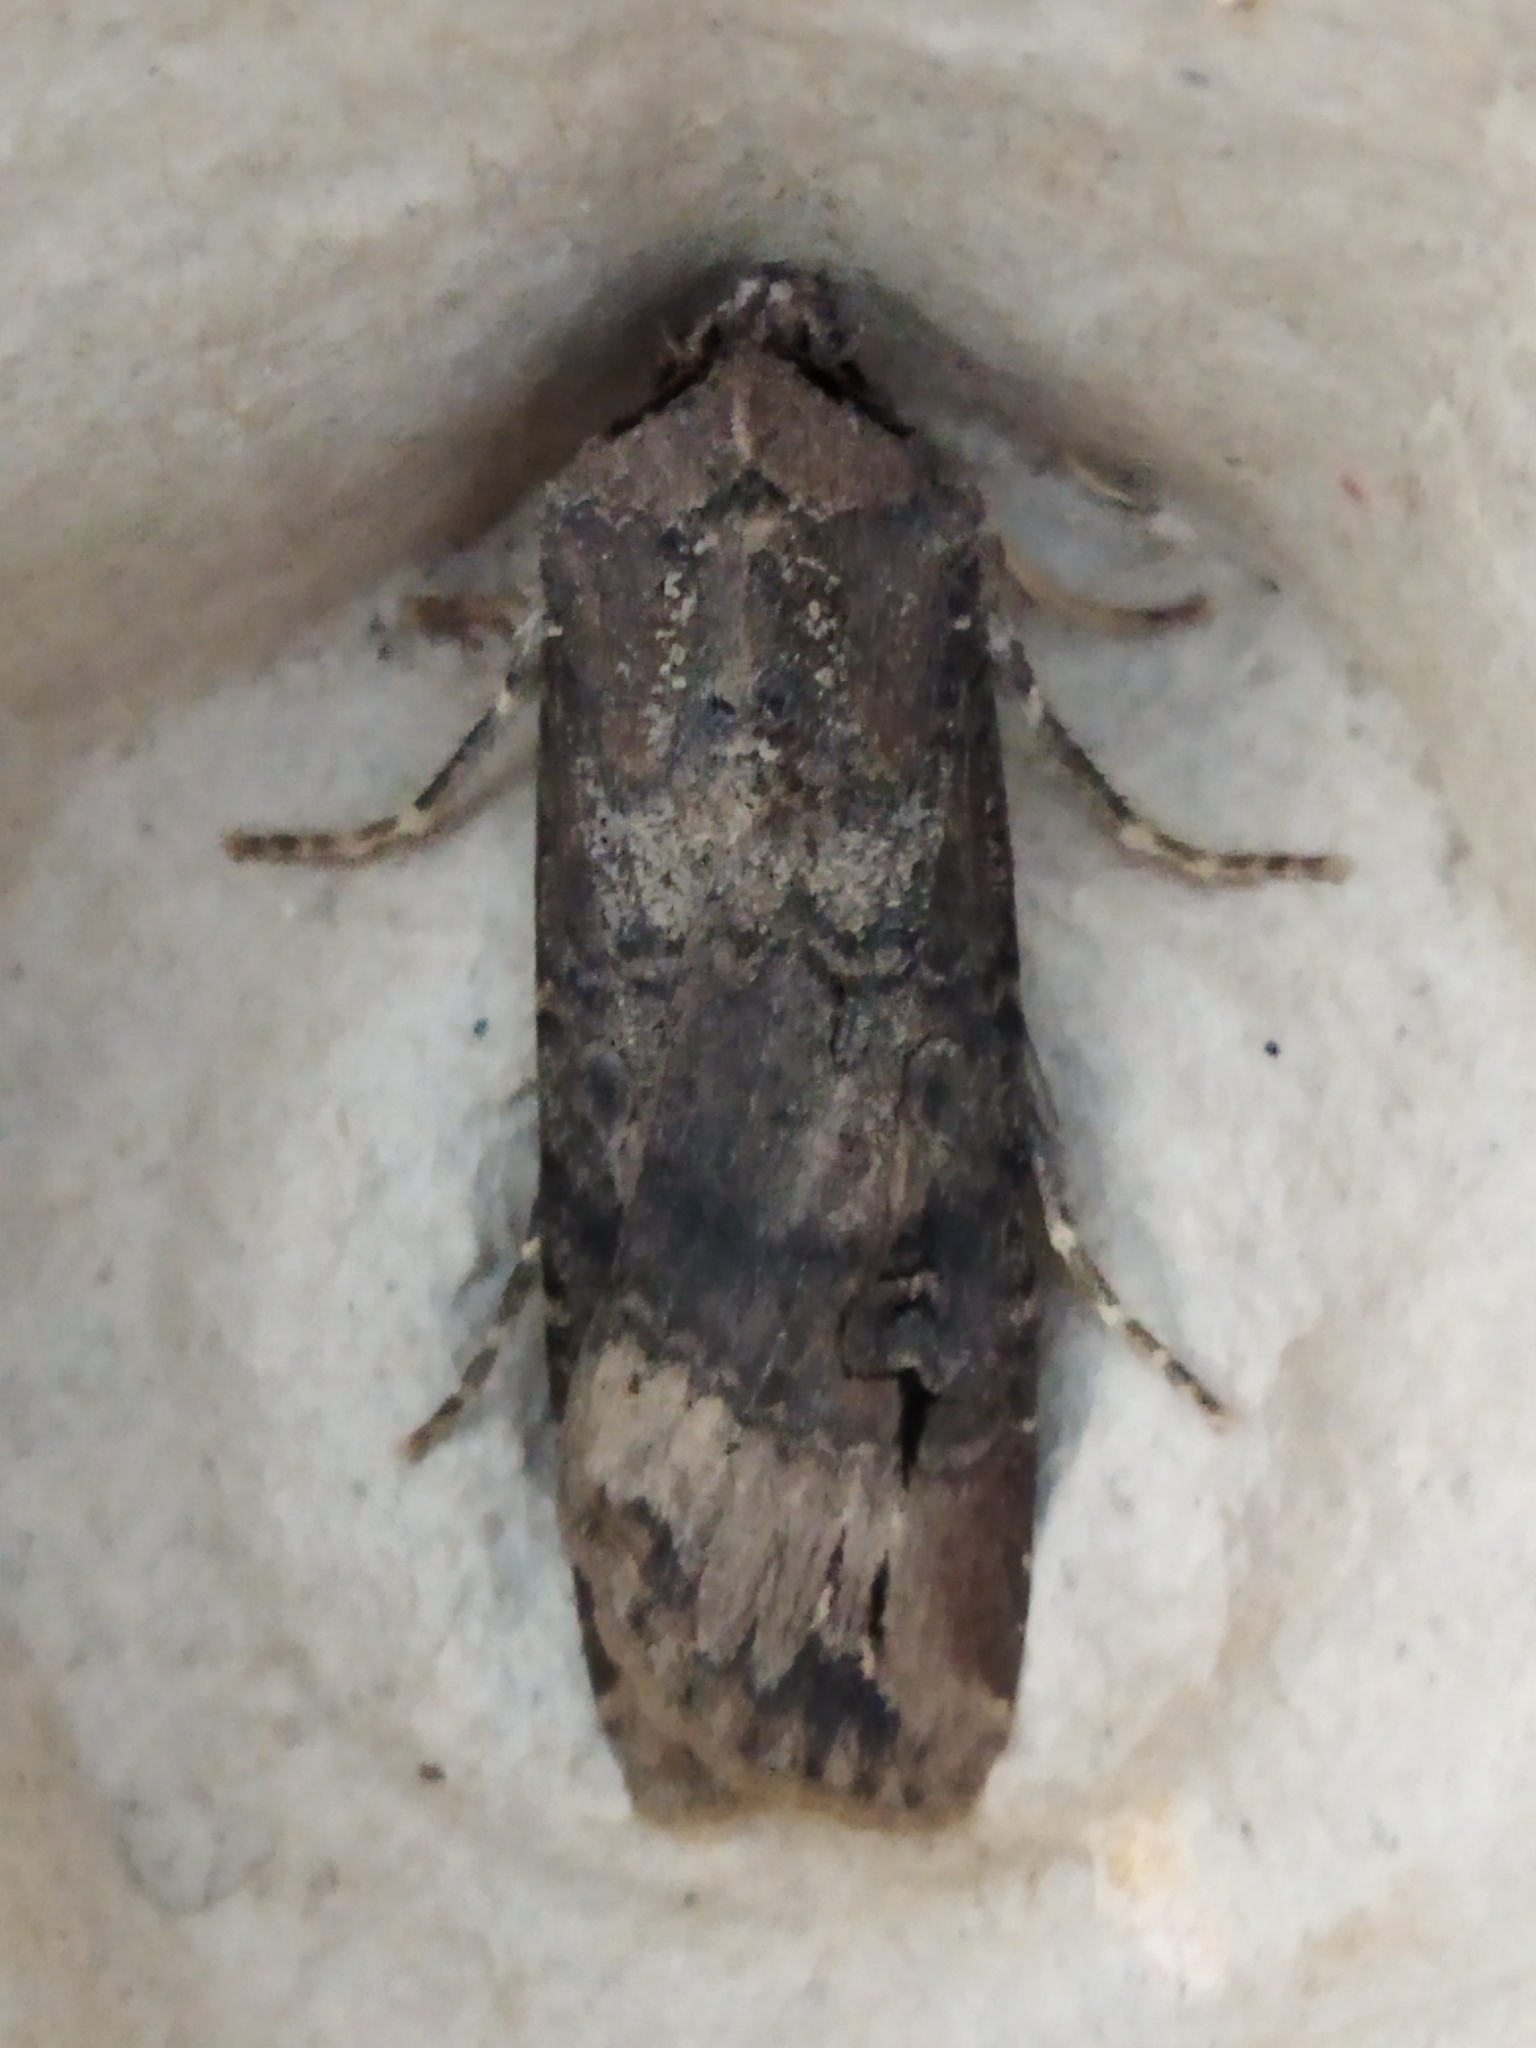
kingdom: Animalia
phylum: Arthropoda
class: Insecta
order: Lepidoptera
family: Noctuidae
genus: Agrotis
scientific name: Agrotis ipsilon
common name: Dark sword-grass
